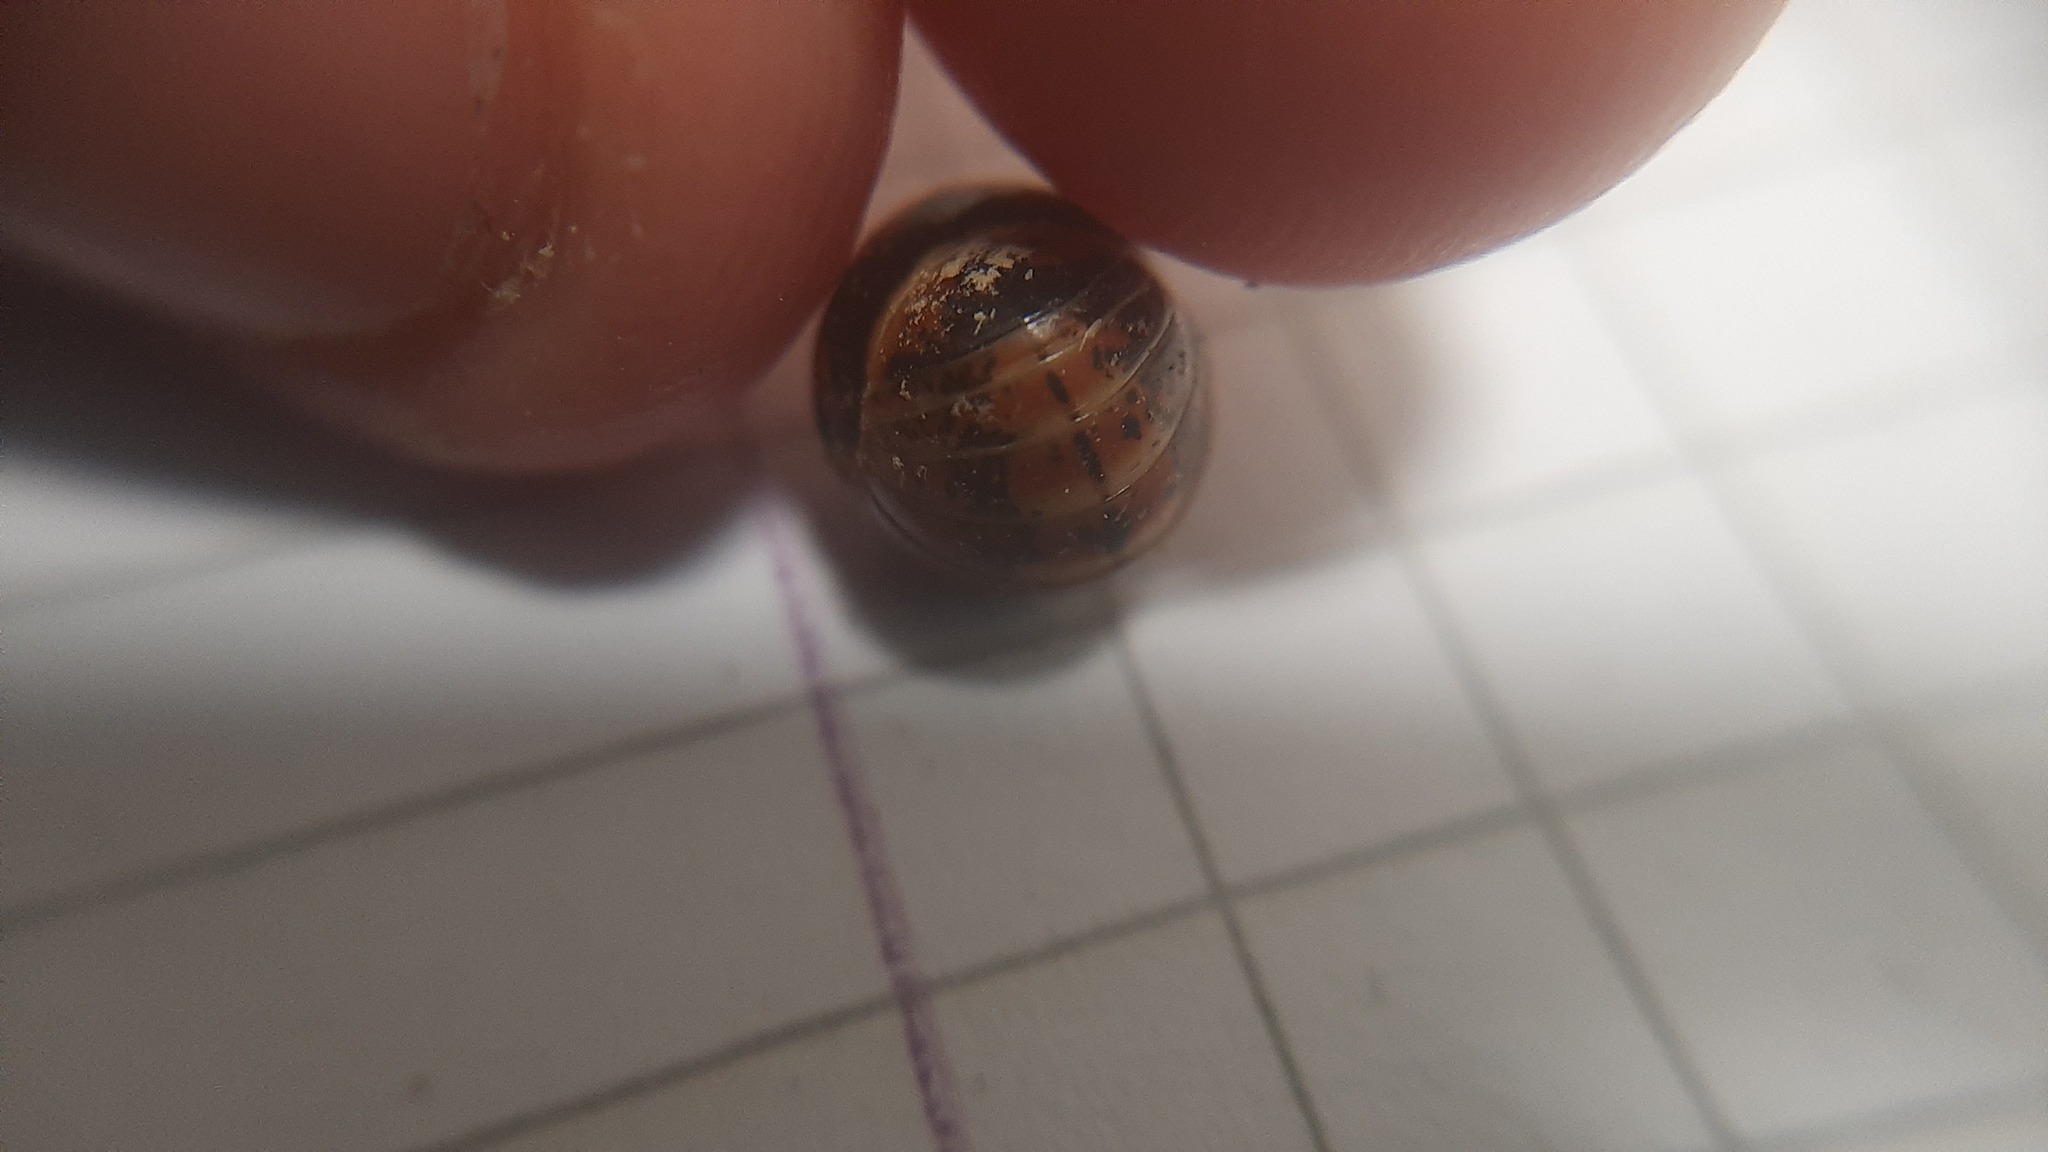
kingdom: Animalia
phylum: Arthropoda
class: Diplopoda
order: Glomerida
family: Glomeridae
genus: Glomeris
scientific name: Glomeris klugii
